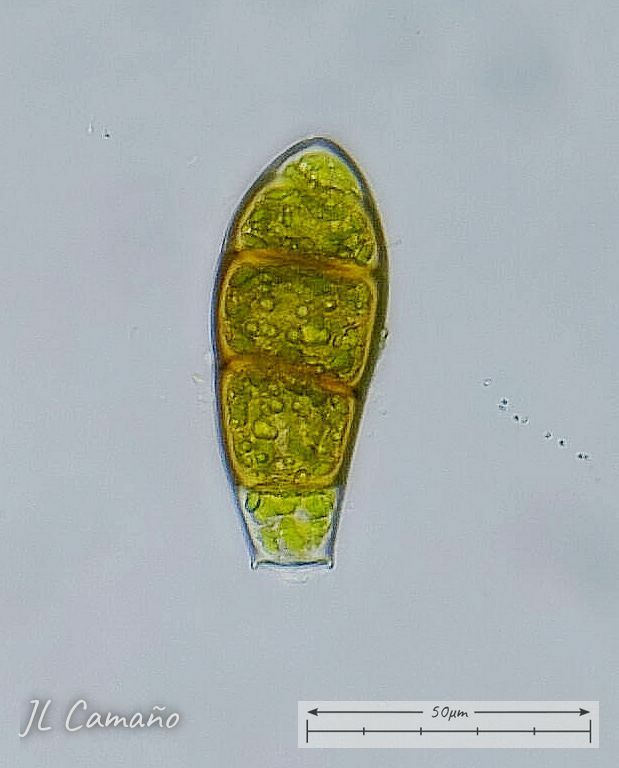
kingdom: Plantae
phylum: Bryophyta
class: Bryopsida
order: Orthotrichales
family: Orthotrichaceae
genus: Zygodon
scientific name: Zygodon rupestris
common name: Park yoke moss
